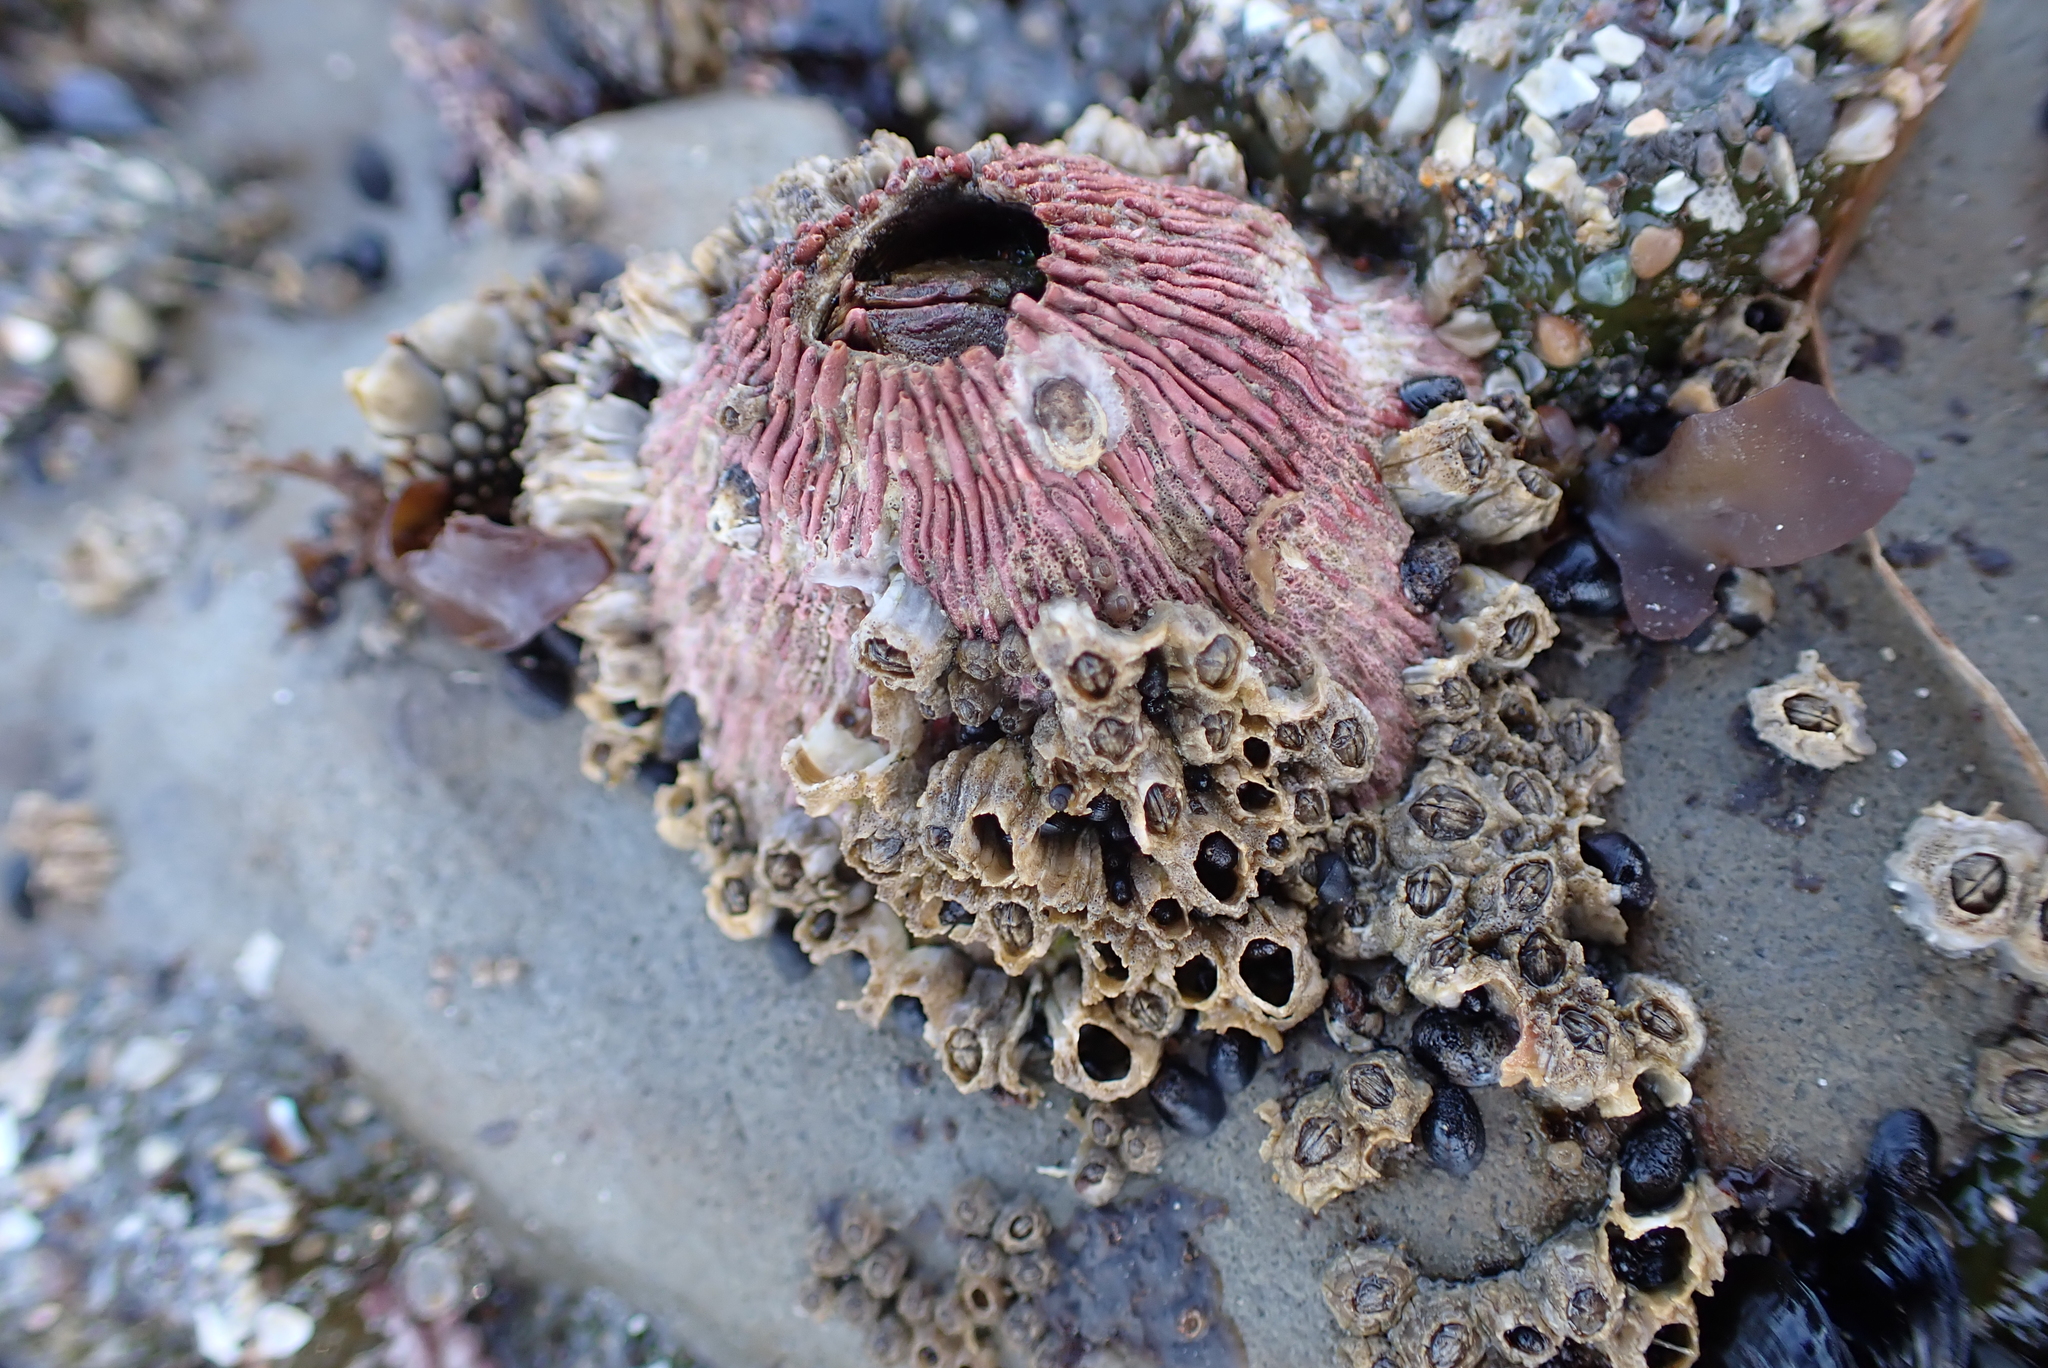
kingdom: Animalia
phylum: Arthropoda
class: Maxillopoda
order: Sessilia
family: Tetraclitidae
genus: Tetraclita
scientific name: Tetraclita rubescens
